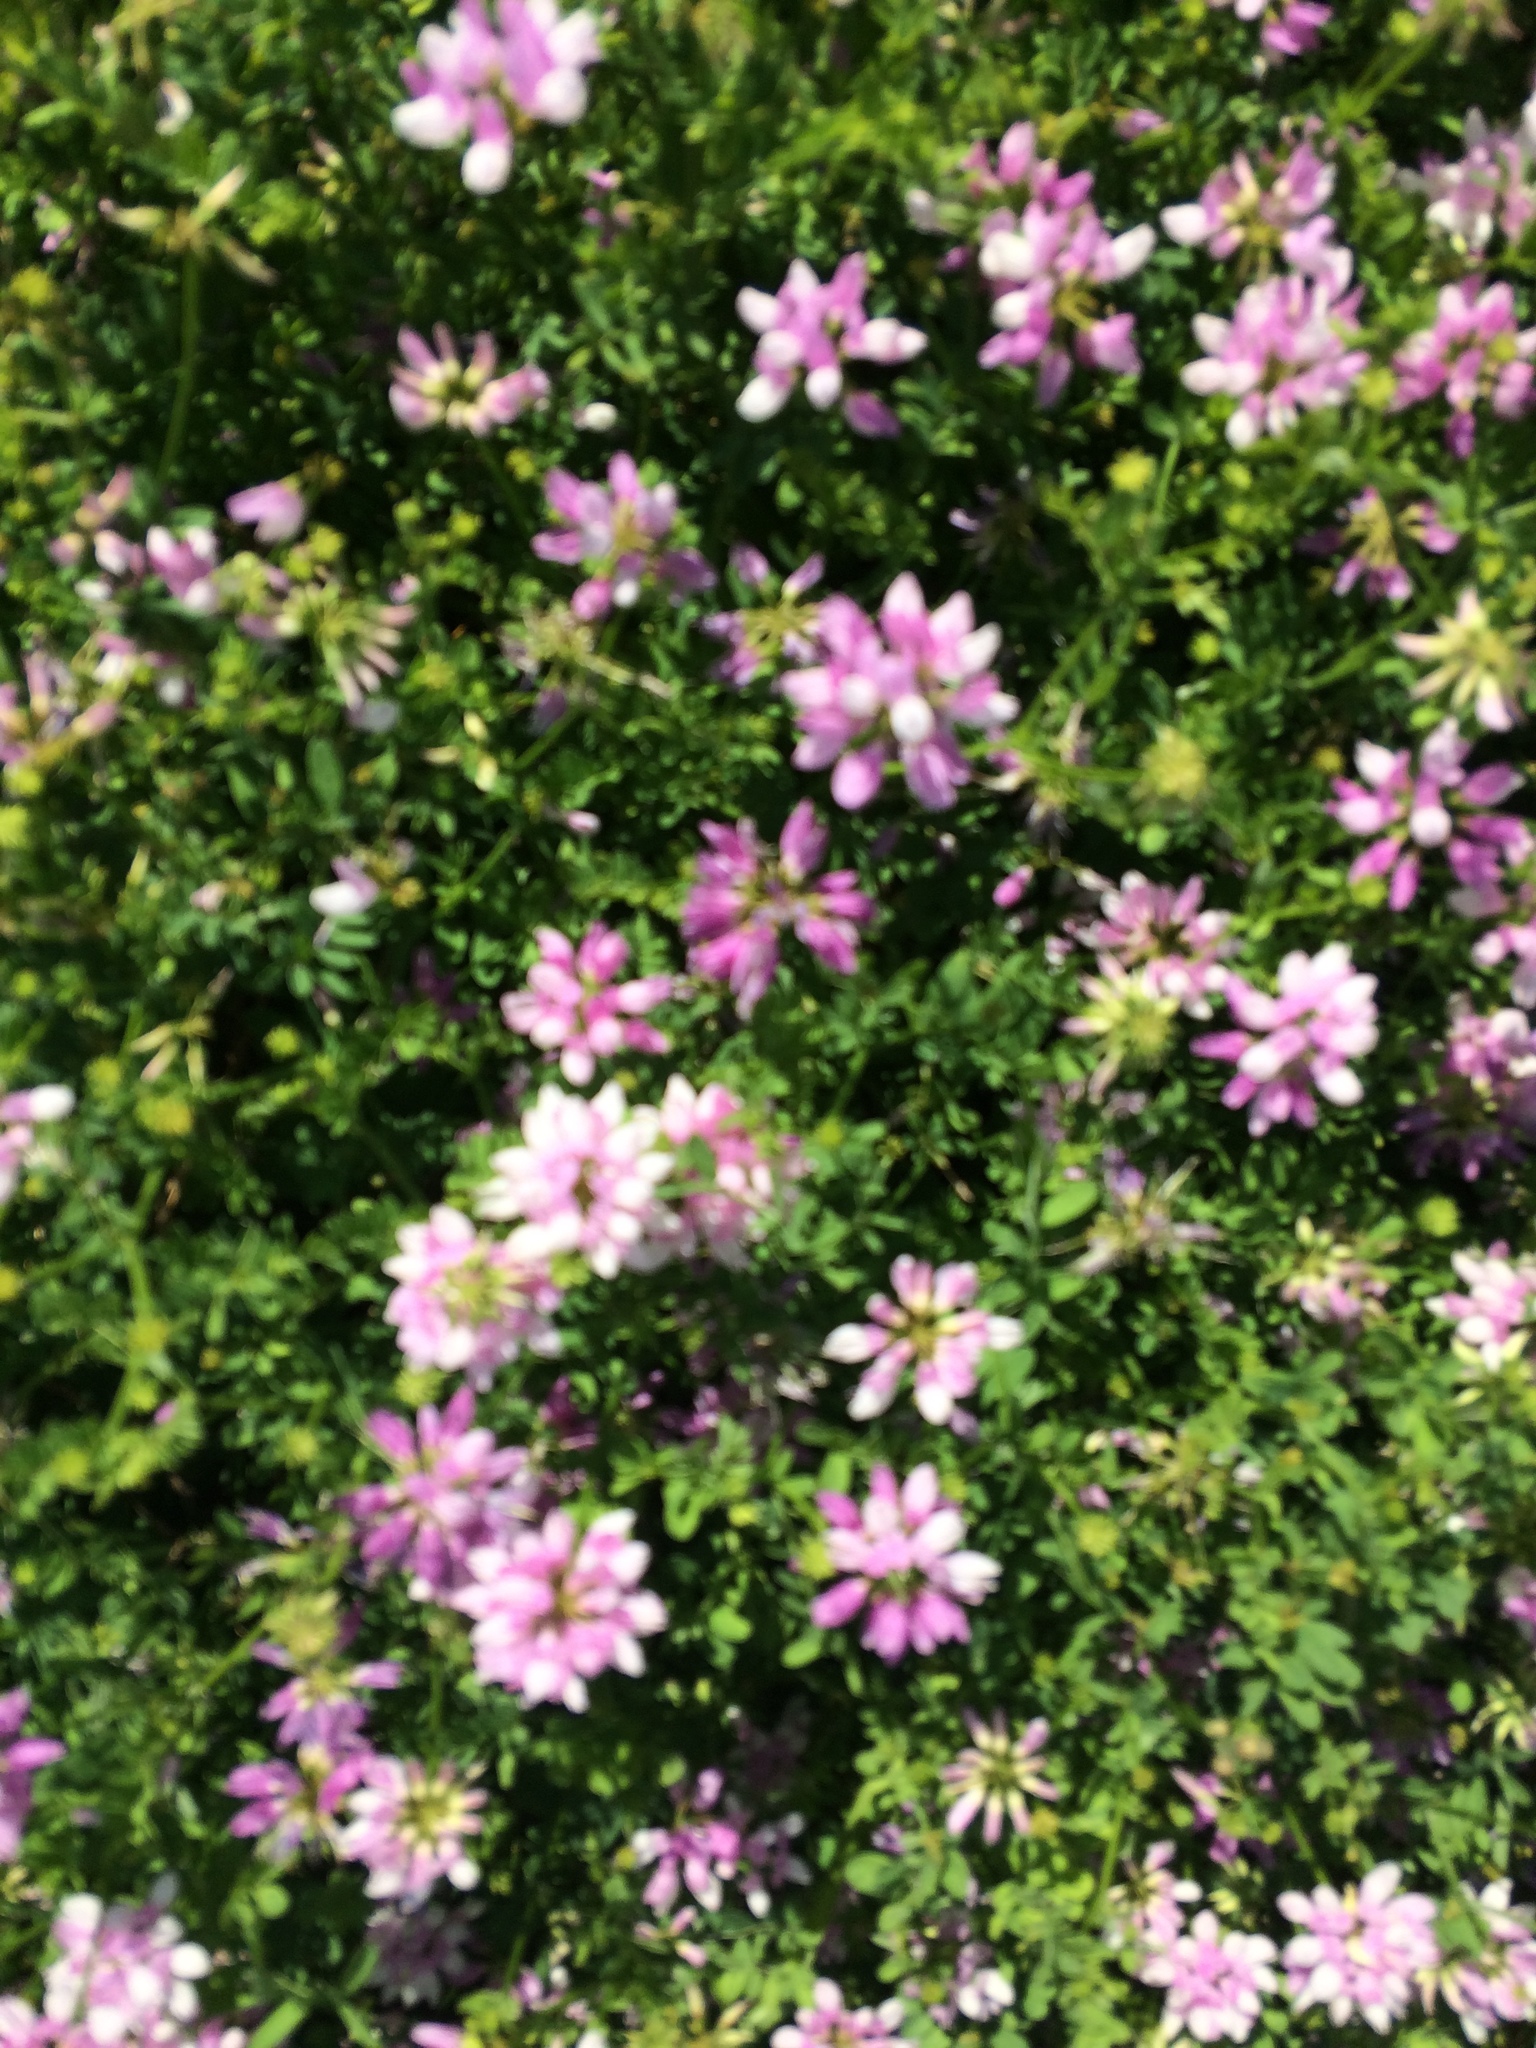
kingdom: Plantae
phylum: Tracheophyta
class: Magnoliopsida
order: Fabales
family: Fabaceae
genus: Coronilla
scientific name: Coronilla varia
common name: Crownvetch
